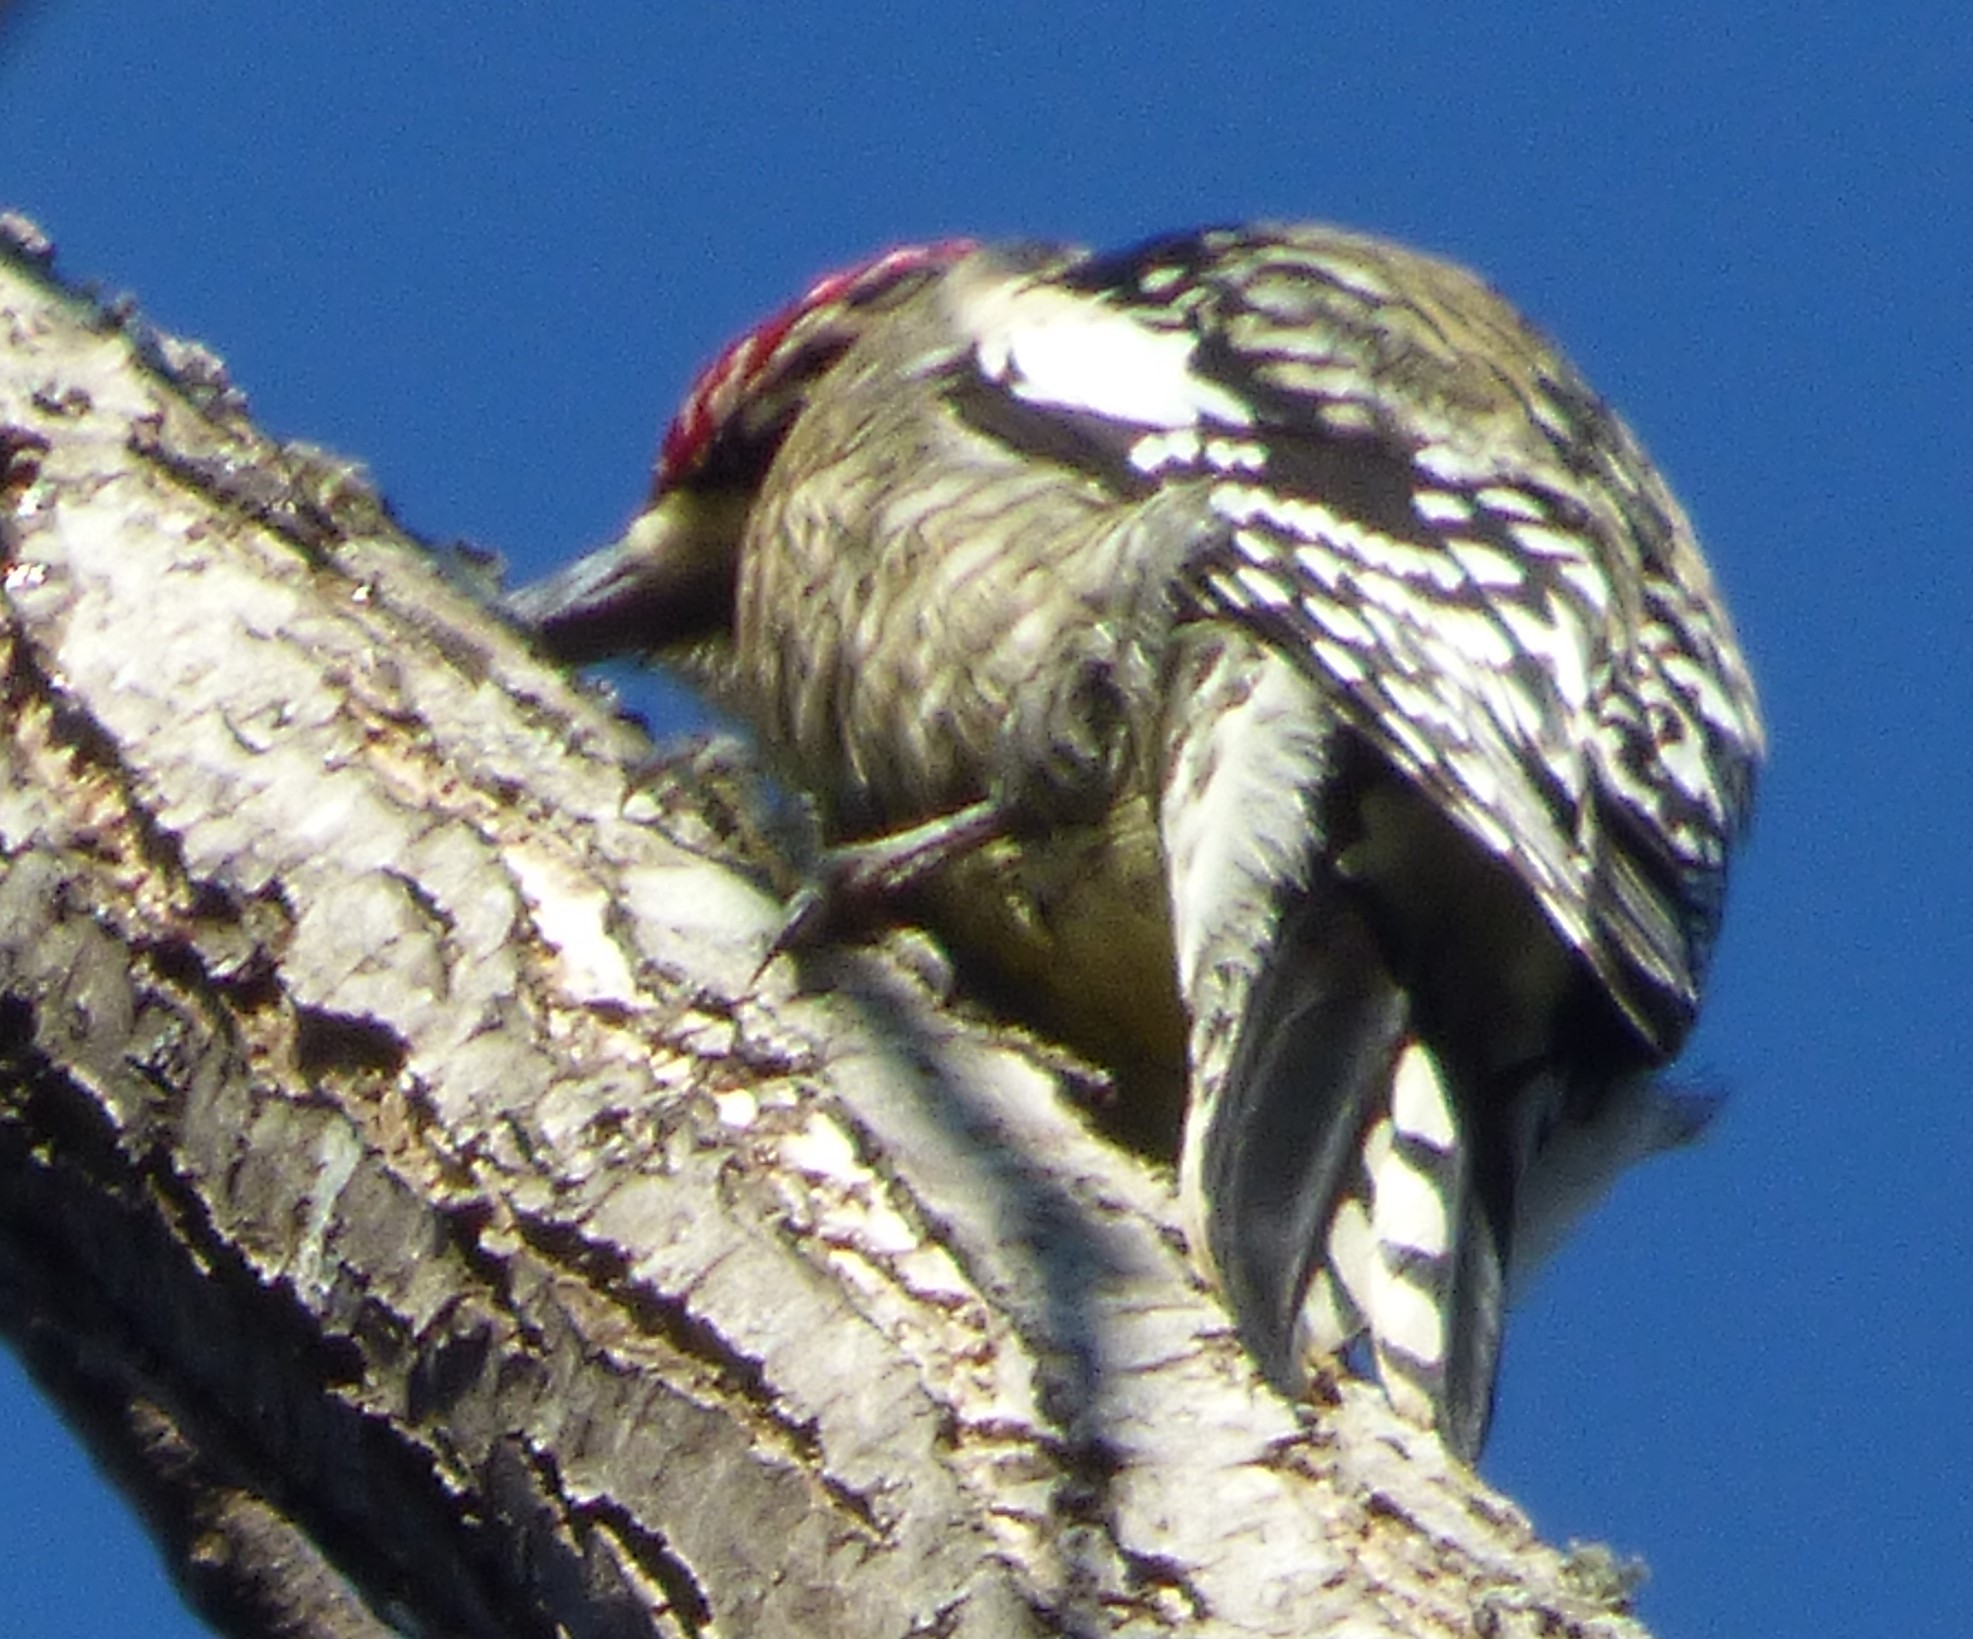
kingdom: Animalia
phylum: Chordata
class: Aves
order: Piciformes
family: Picidae
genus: Sphyrapicus
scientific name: Sphyrapicus varius
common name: Yellow-bellied sapsucker
